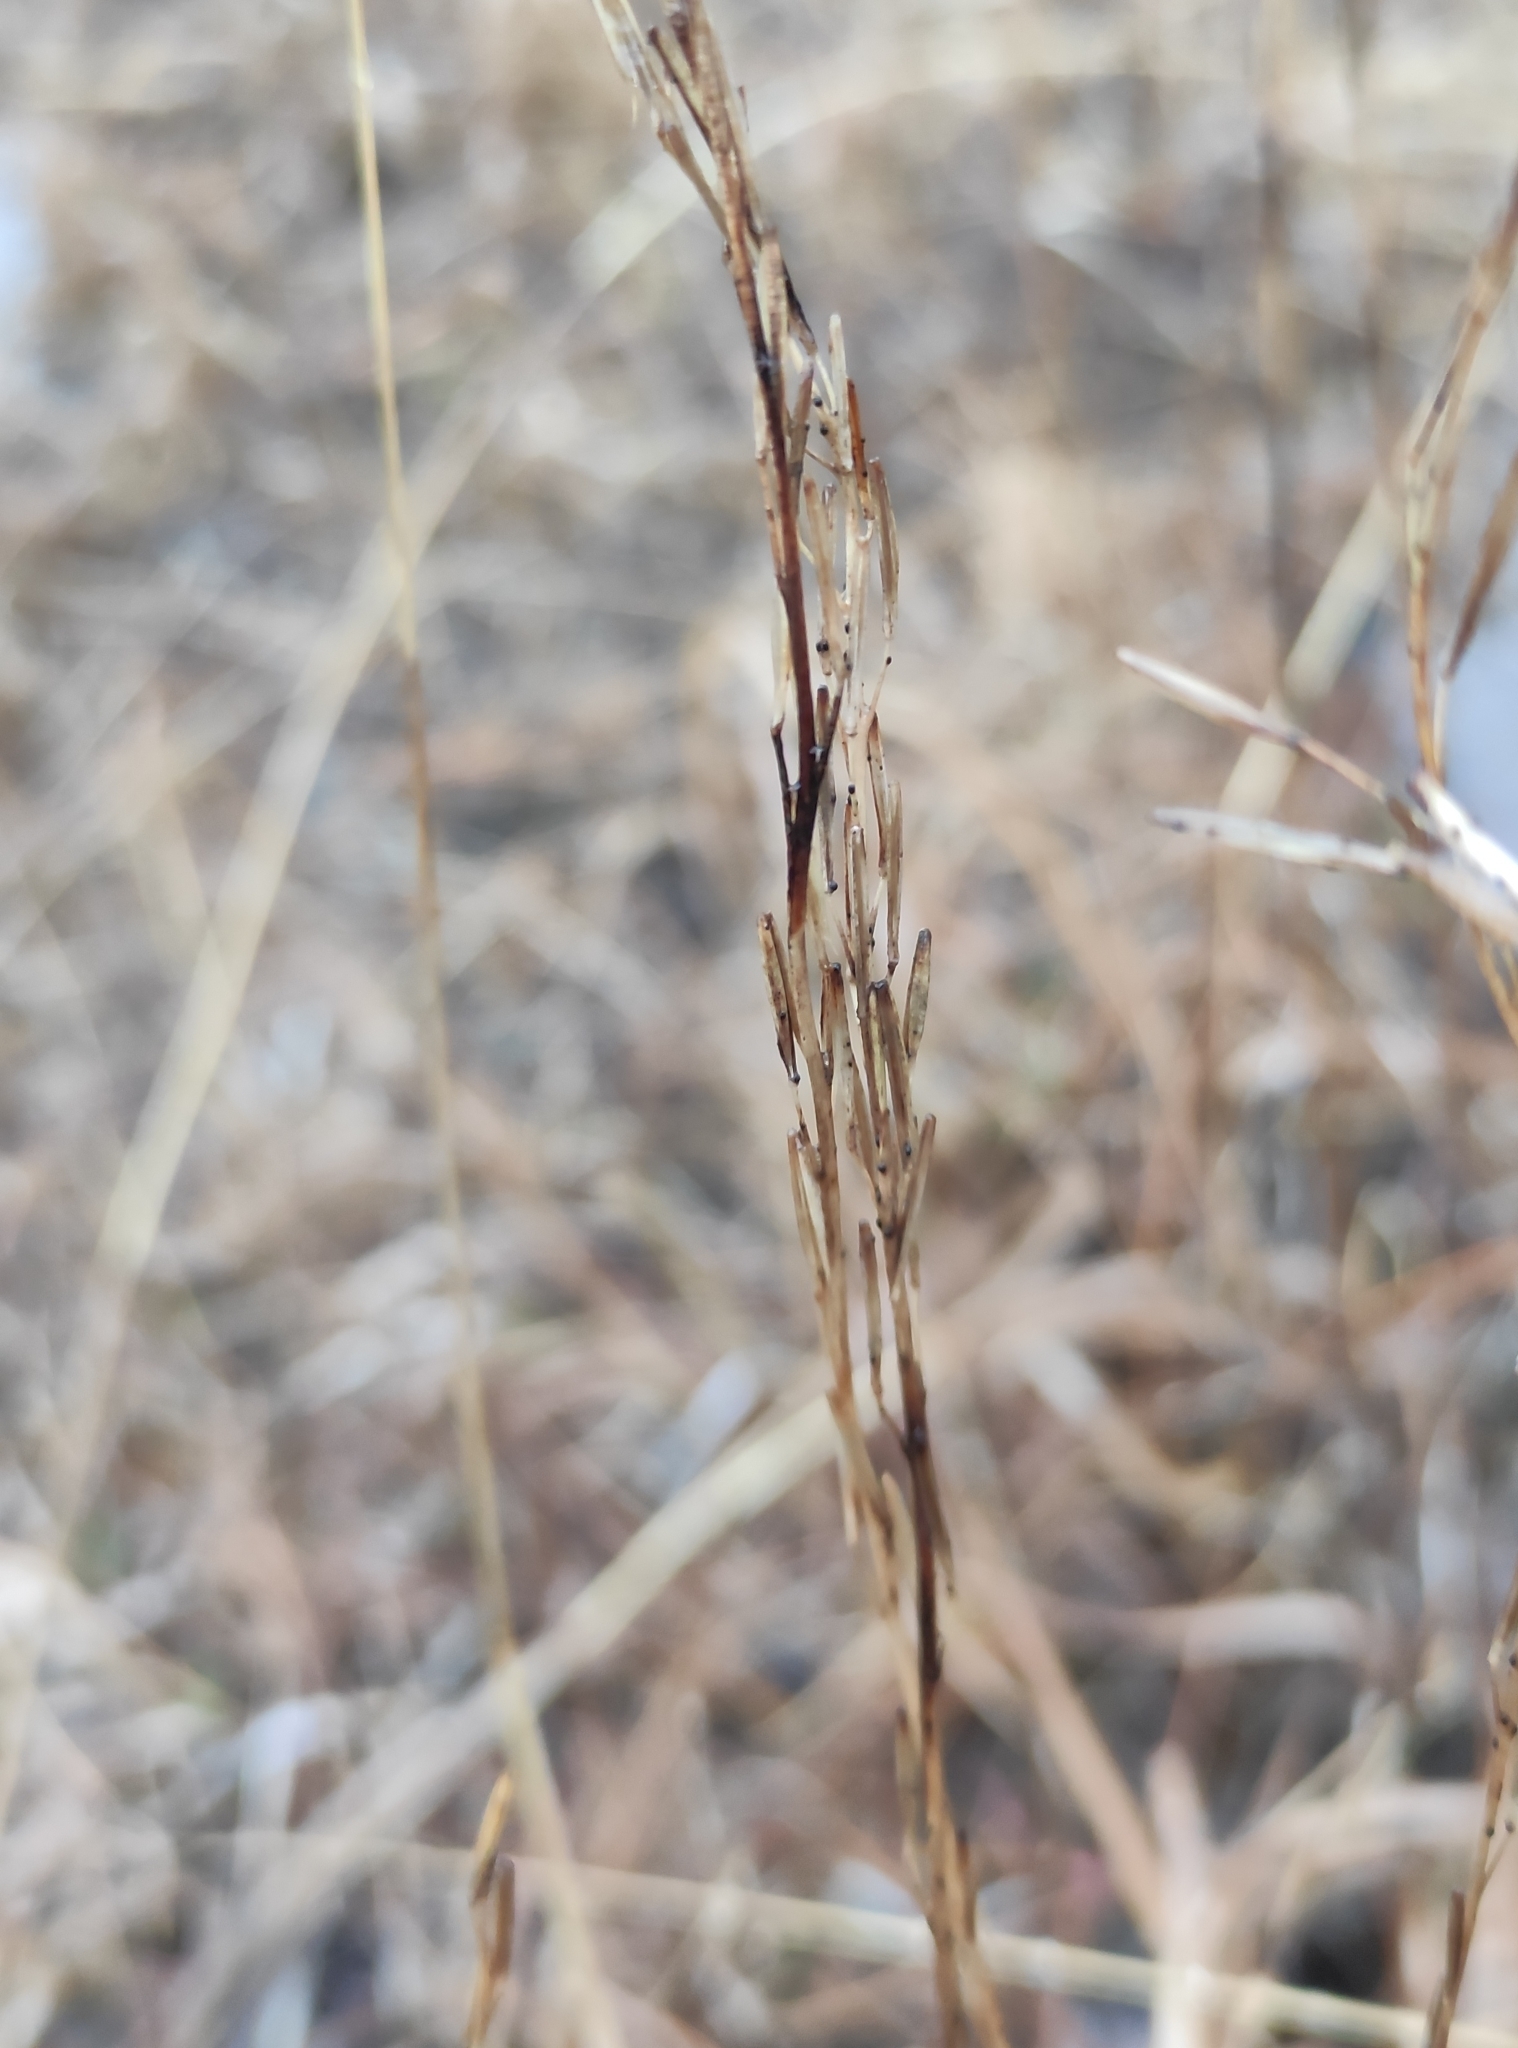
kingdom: Plantae
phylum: Tracheophyta
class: Liliopsida
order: Alismatales
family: Juncaginaceae
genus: Triglochin
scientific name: Triglochin palustris
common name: Marsh arrowgrass
